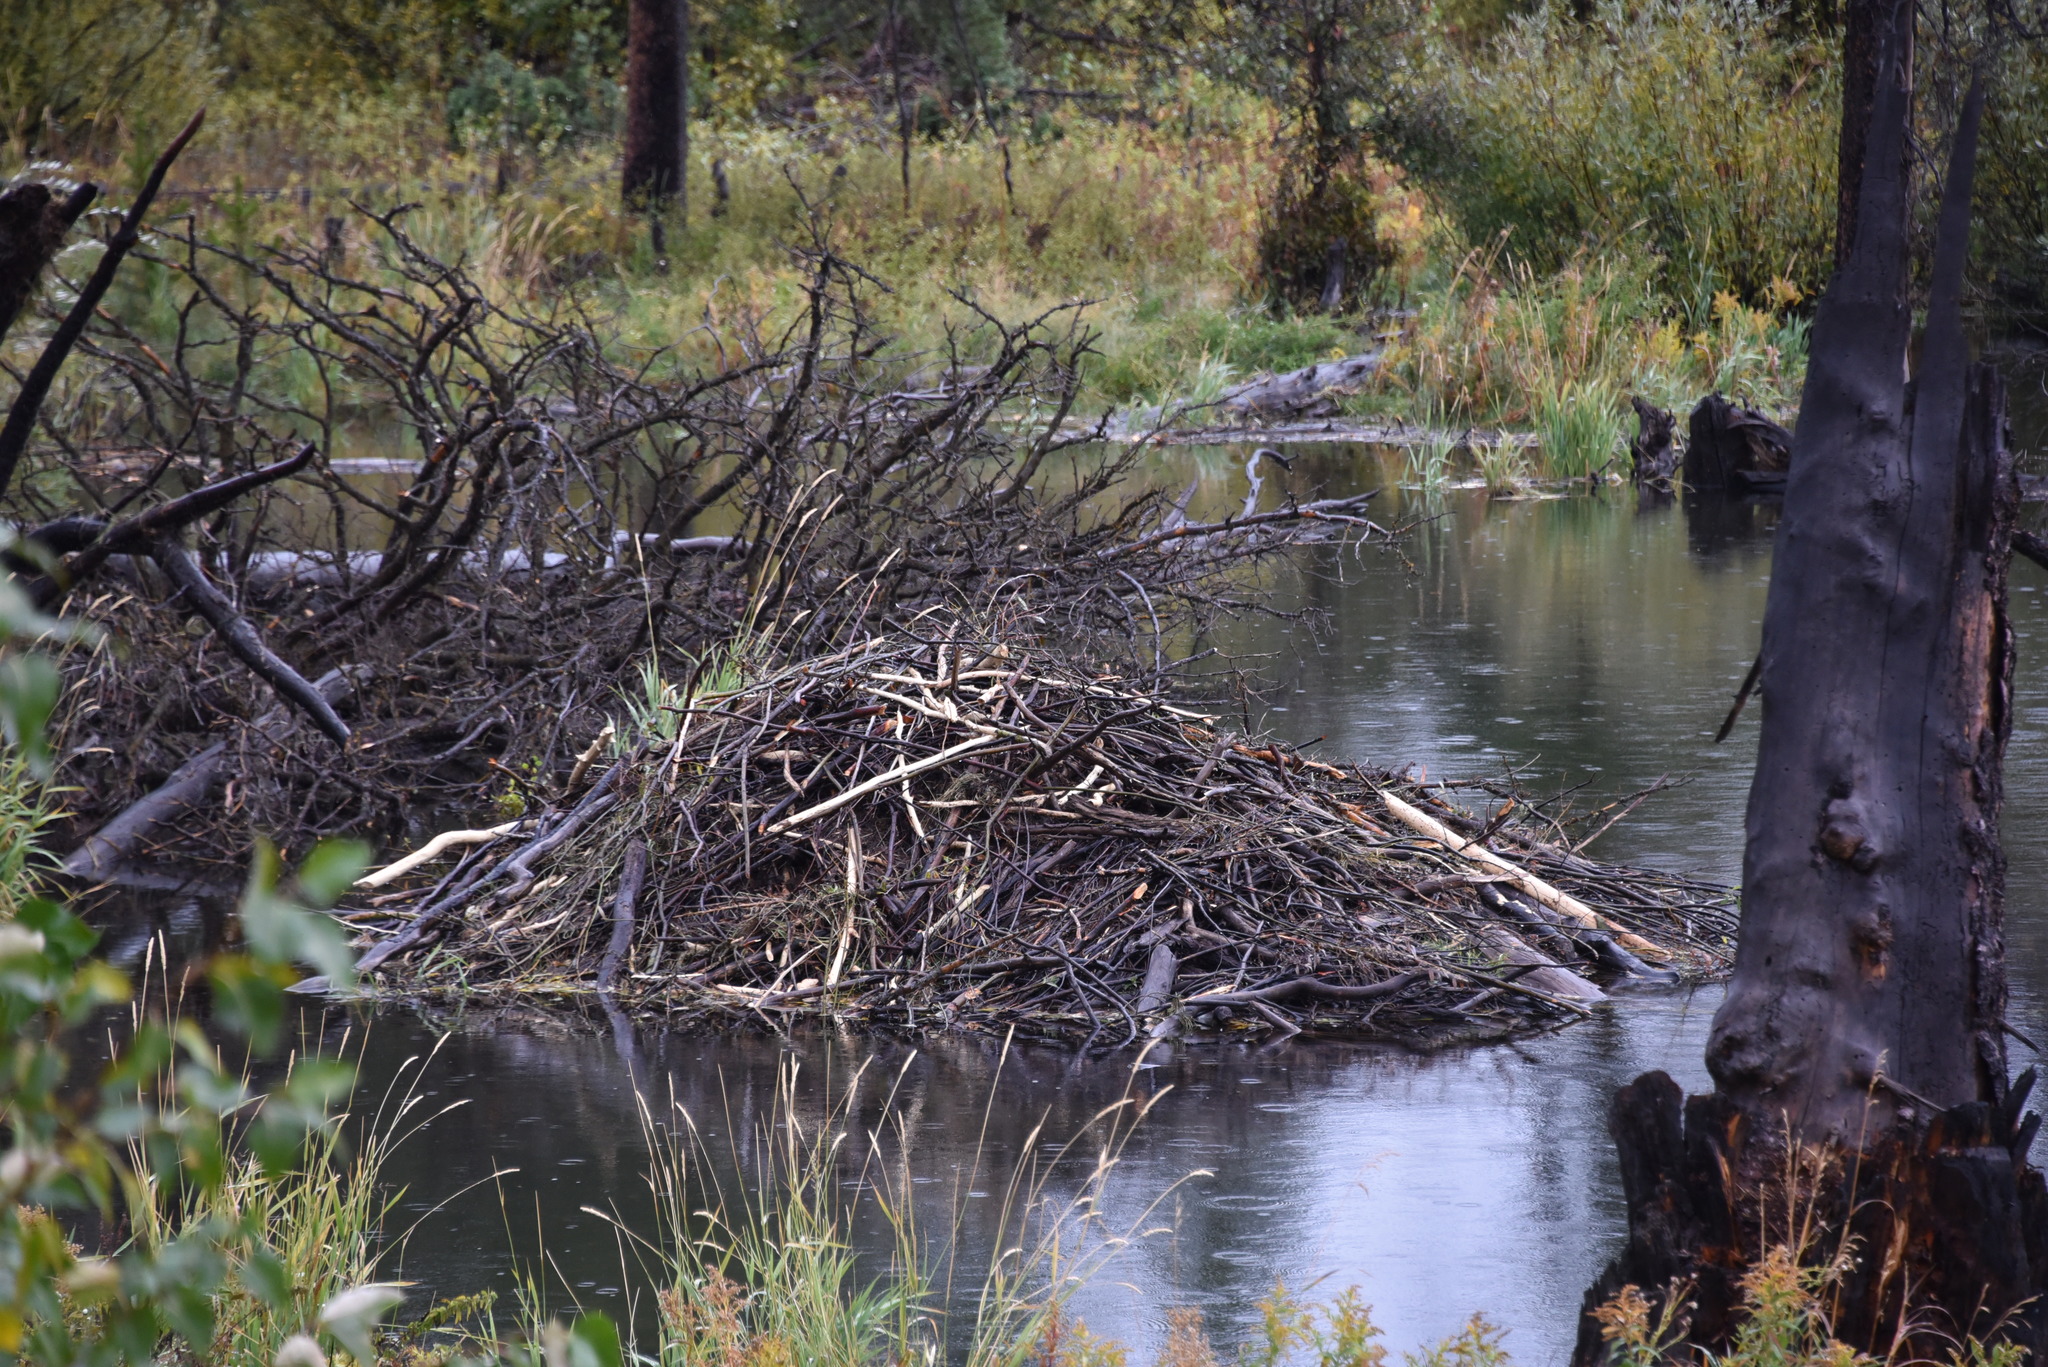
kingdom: Animalia
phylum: Chordata
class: Mammalia
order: Rodentia
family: Castoridae
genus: Castor
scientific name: Castor canadensis
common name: American beaver
